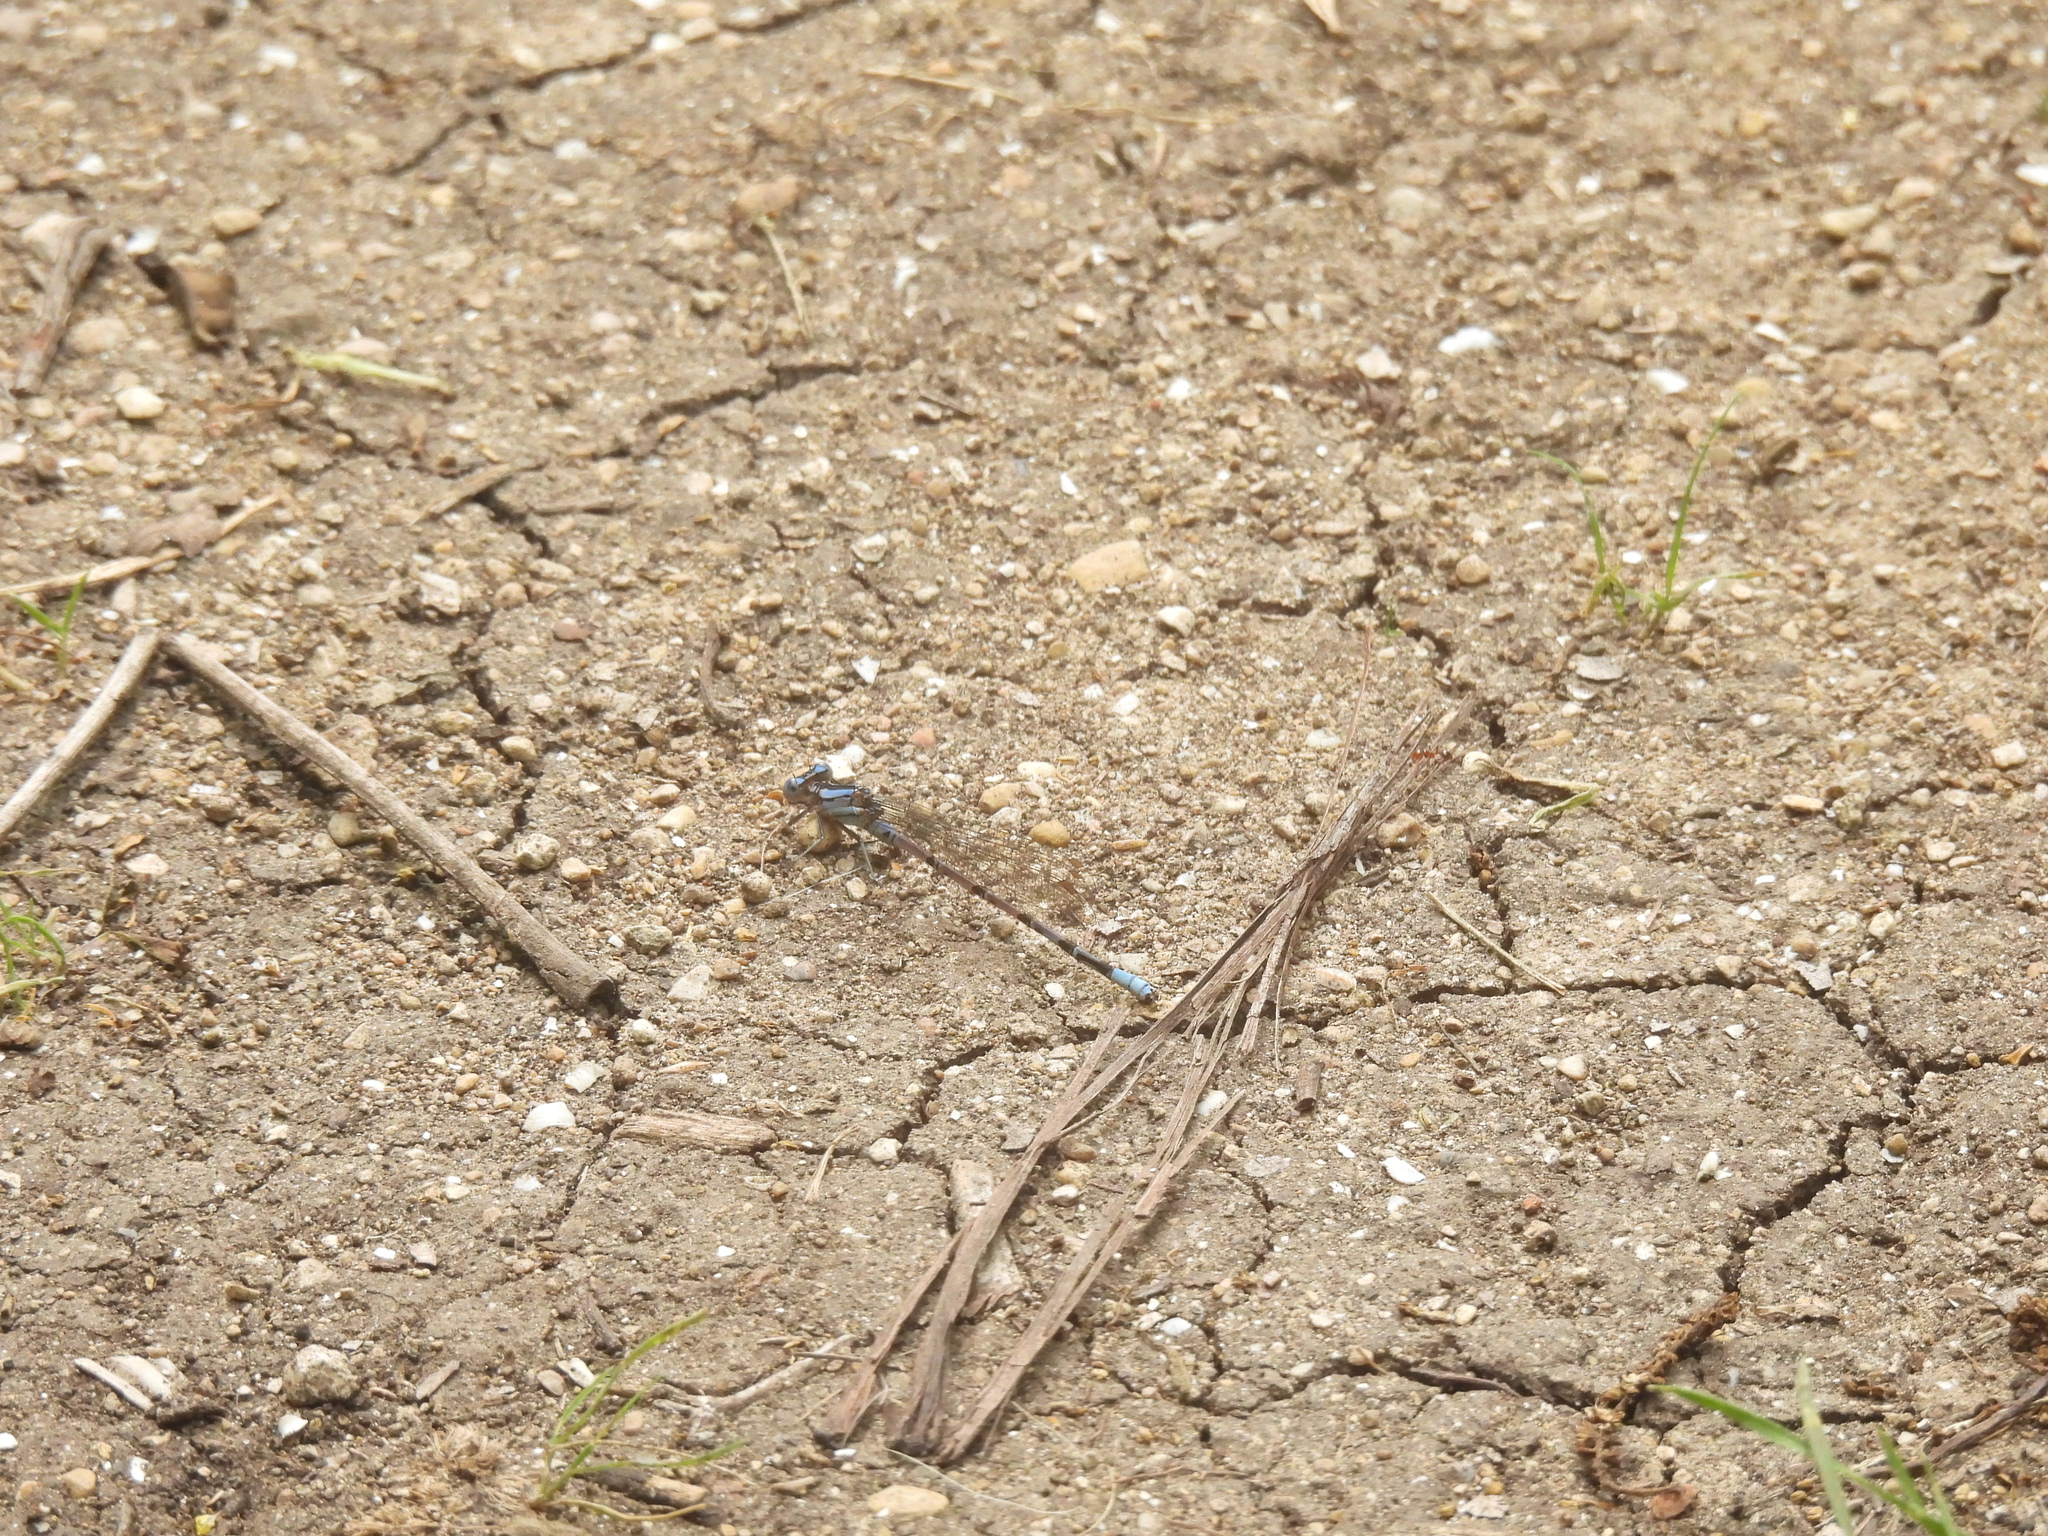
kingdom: Animalia
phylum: Arthropoda
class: Insecta
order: Odonata
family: Coenagrionidae
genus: Argia
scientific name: Argia funebris
